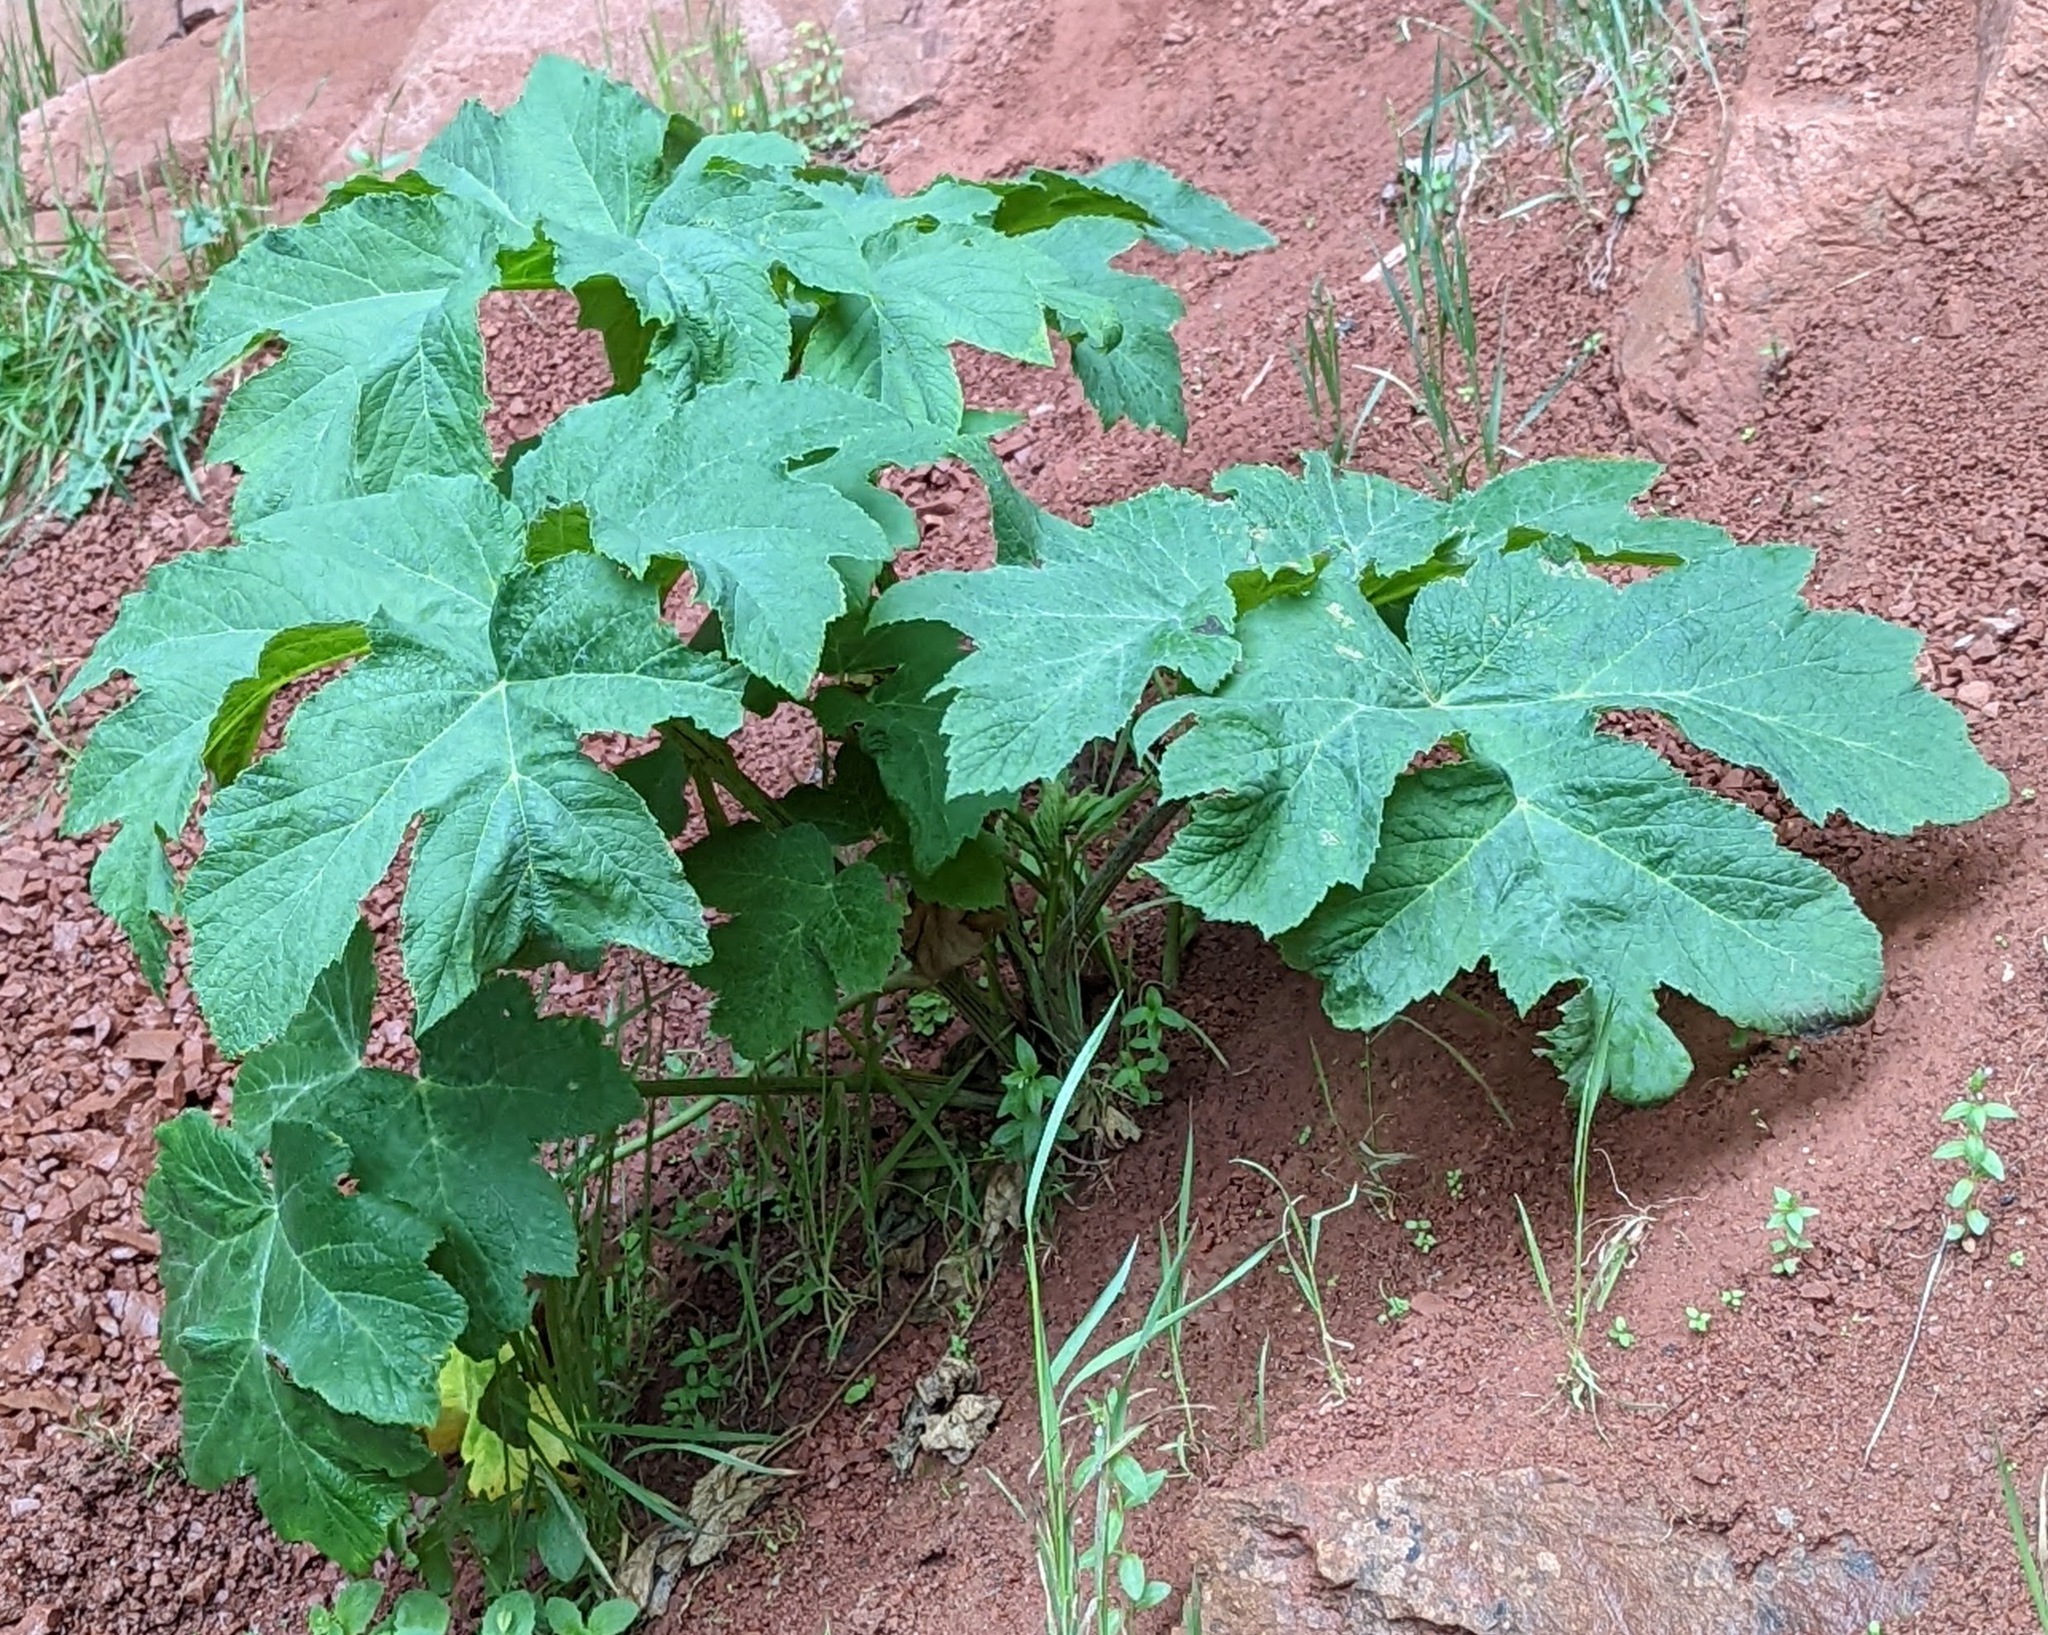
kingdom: Plantae
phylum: Tracheophyta
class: Magnoliopsida
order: Apiales
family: Apiaceae
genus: Heracleum
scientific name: Heracleum maximum
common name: American cow parsnip
